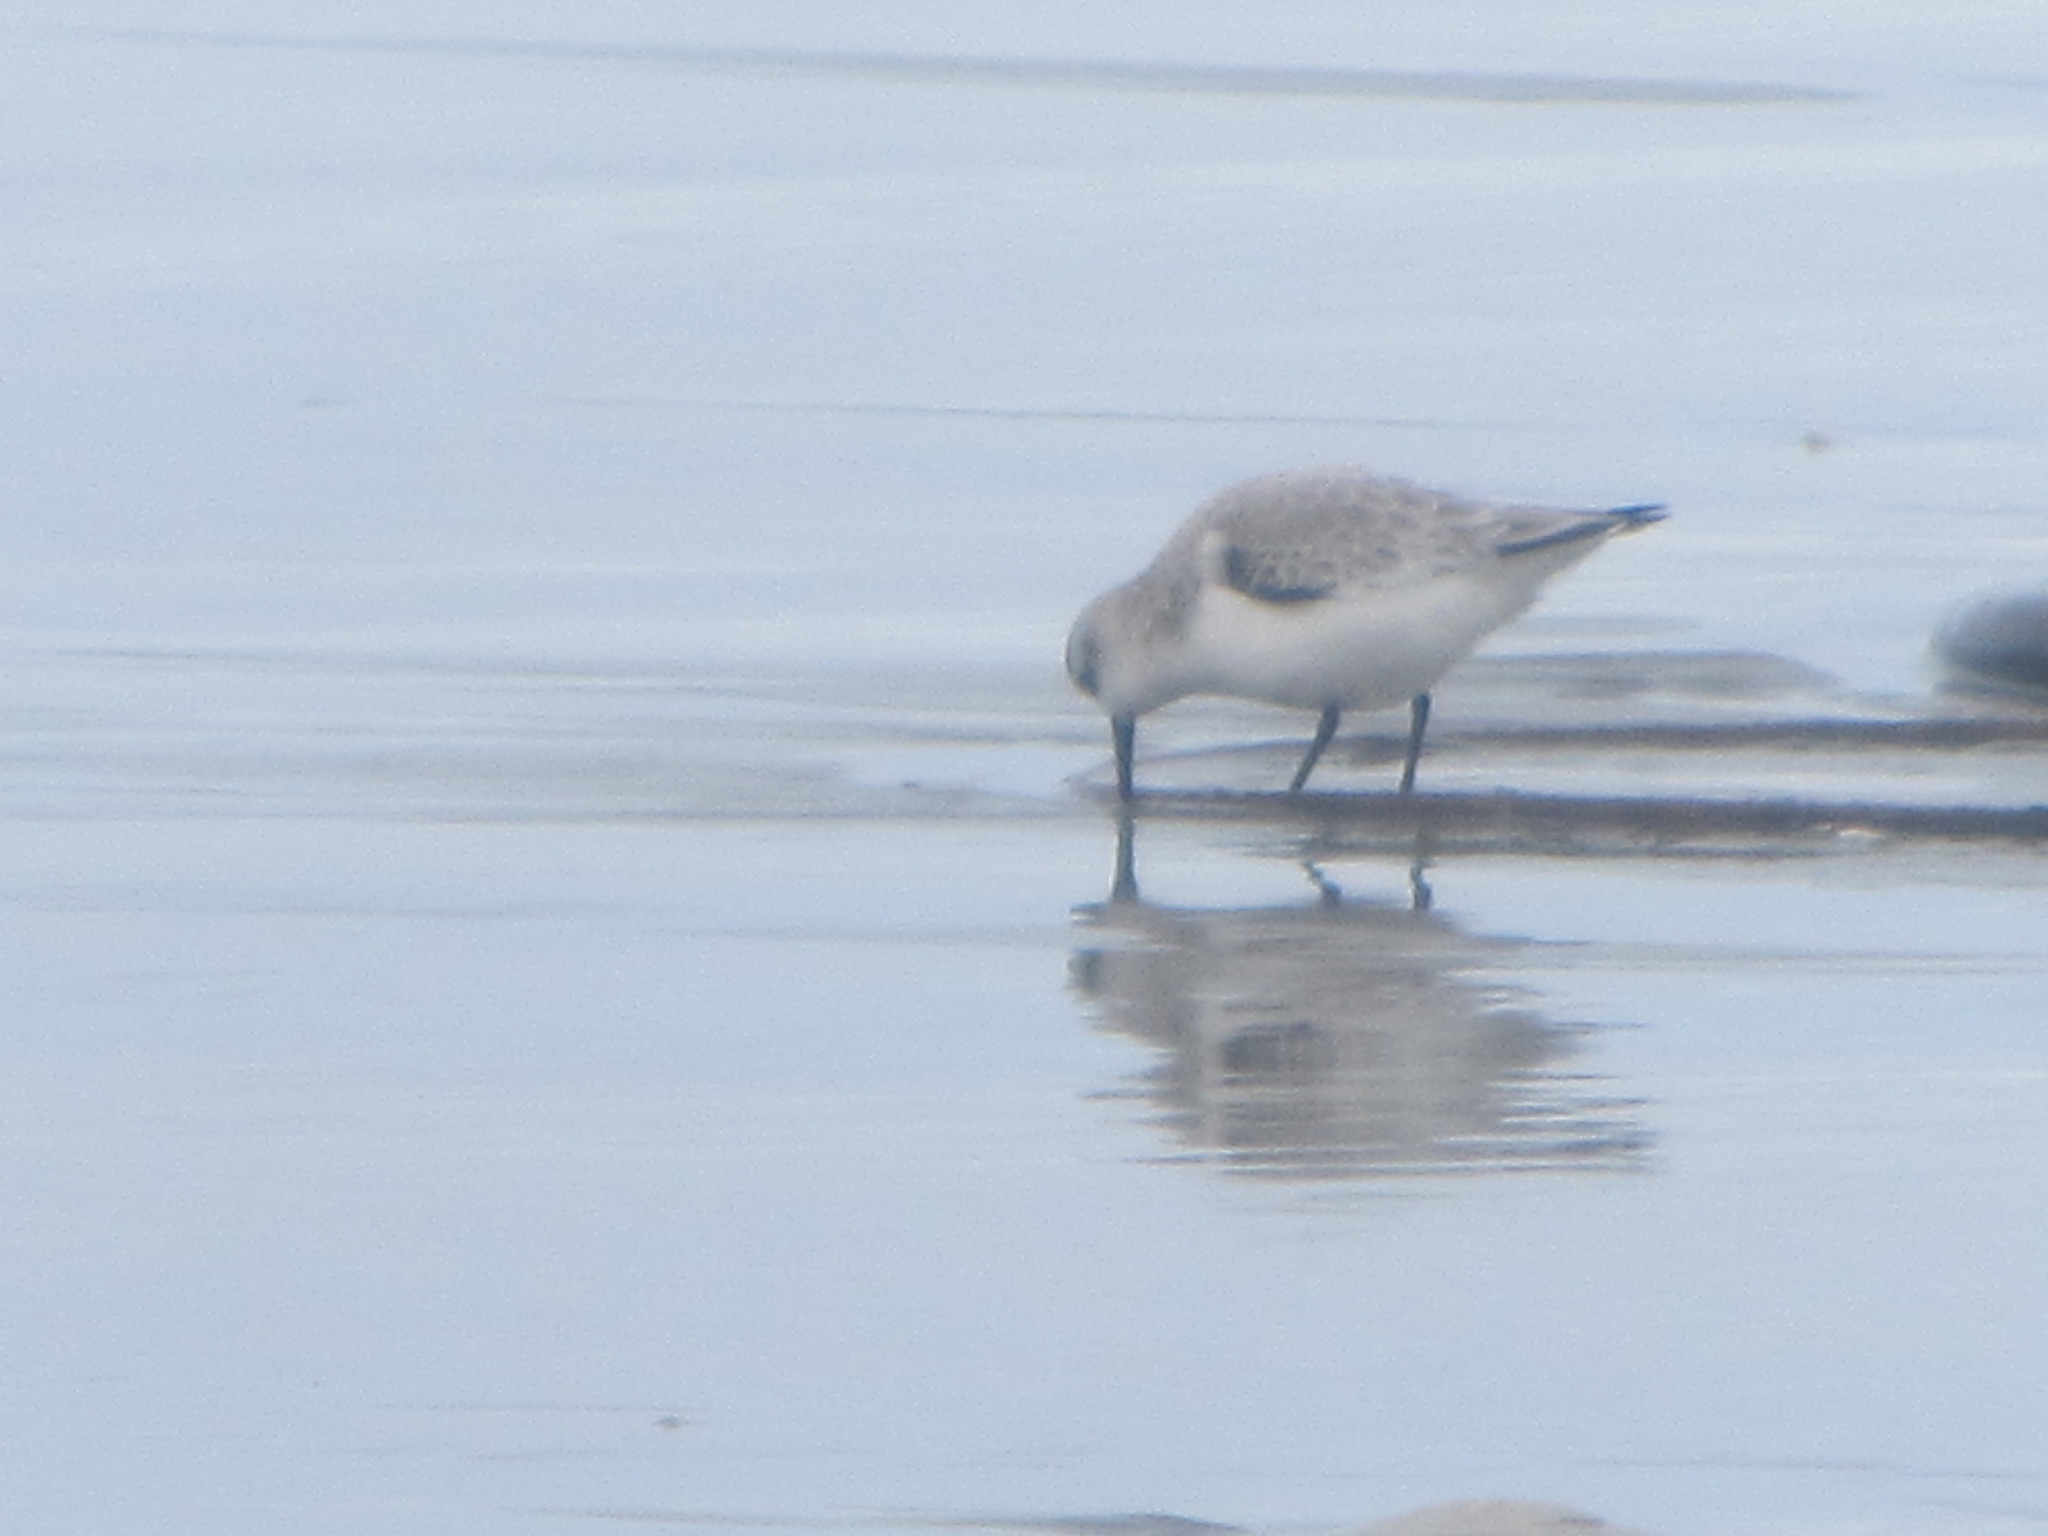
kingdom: Animalia
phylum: Chordata
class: Aves
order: Charadriiformes
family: Scolopacidae
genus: Calidris
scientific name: Calidris alba
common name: Sanderling
